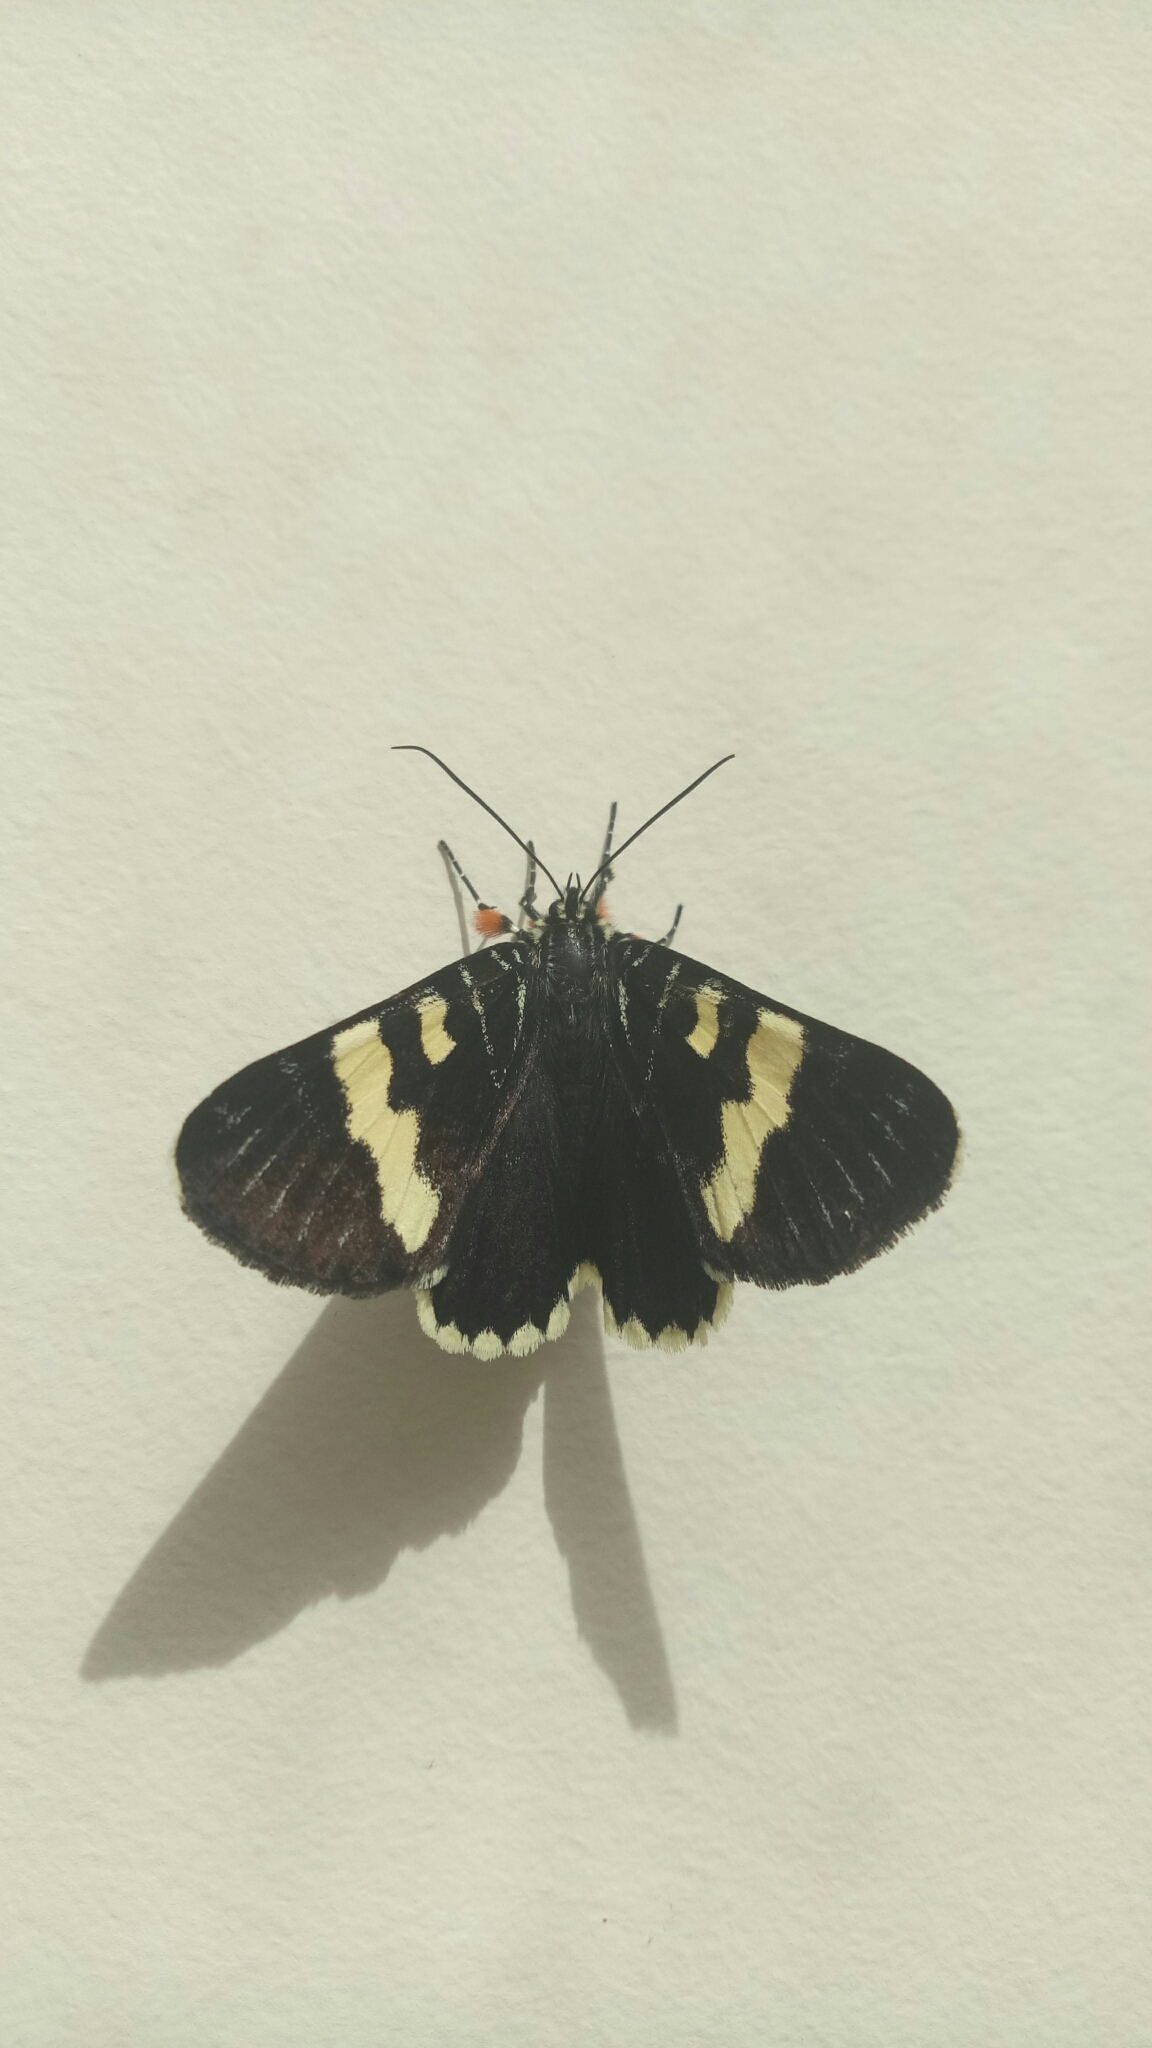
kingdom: Animalia
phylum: Arthropoda
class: Insecta
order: Lepidoptera
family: Noctuidae
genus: Phalaenoides
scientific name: Phalaenoides glycinae
